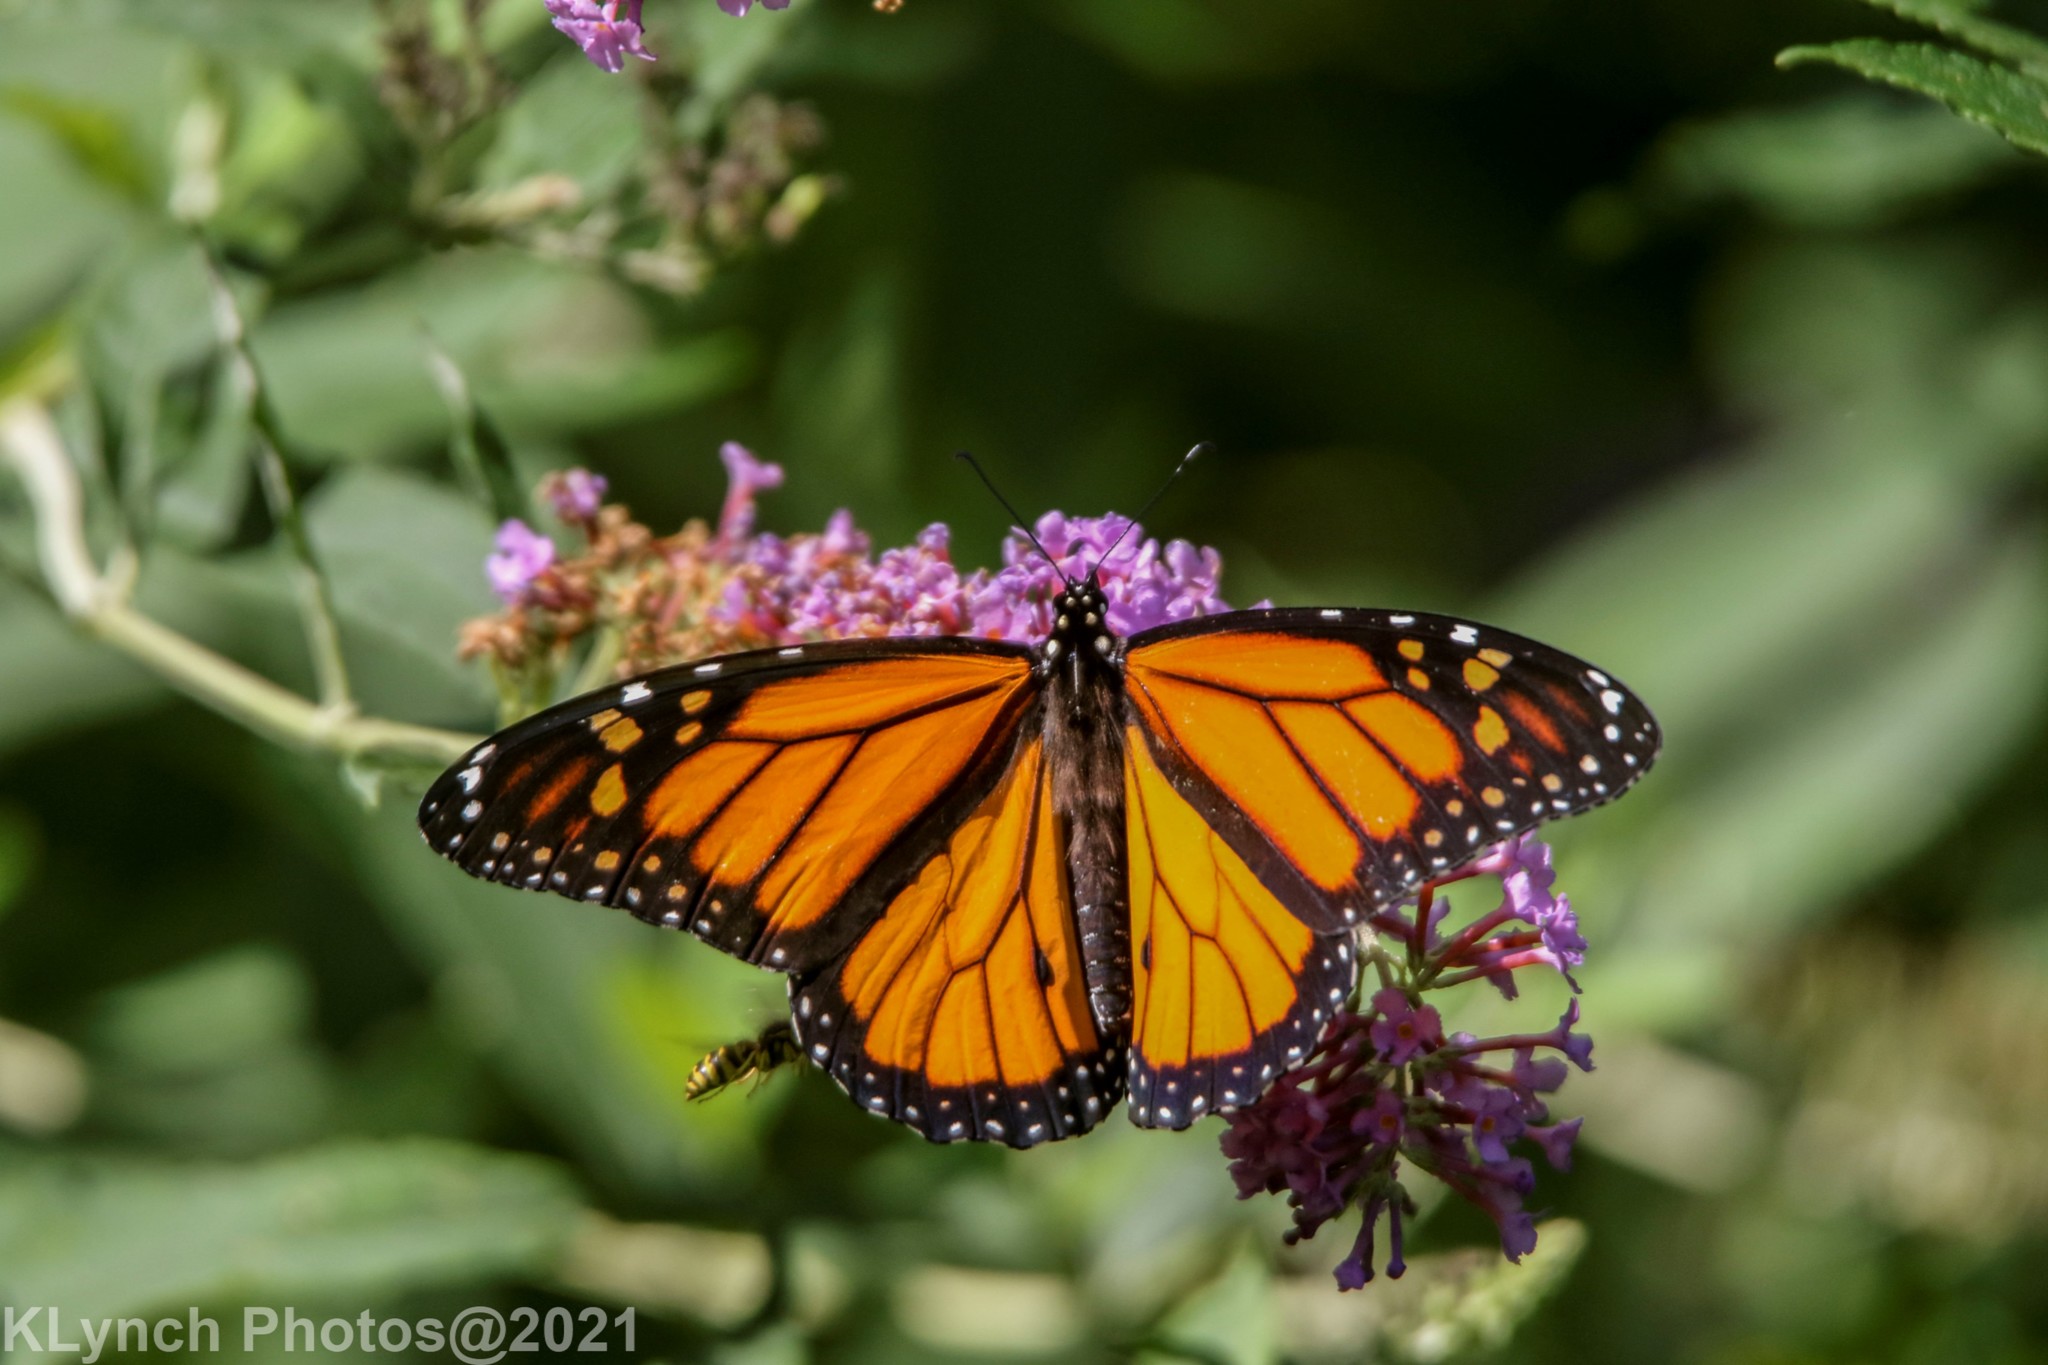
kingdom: Animalia
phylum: Arthropoda
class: Insecta
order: Lepidoptera
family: Nymphalidae
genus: Danaus
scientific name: Danaus plexippus
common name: Monarch
